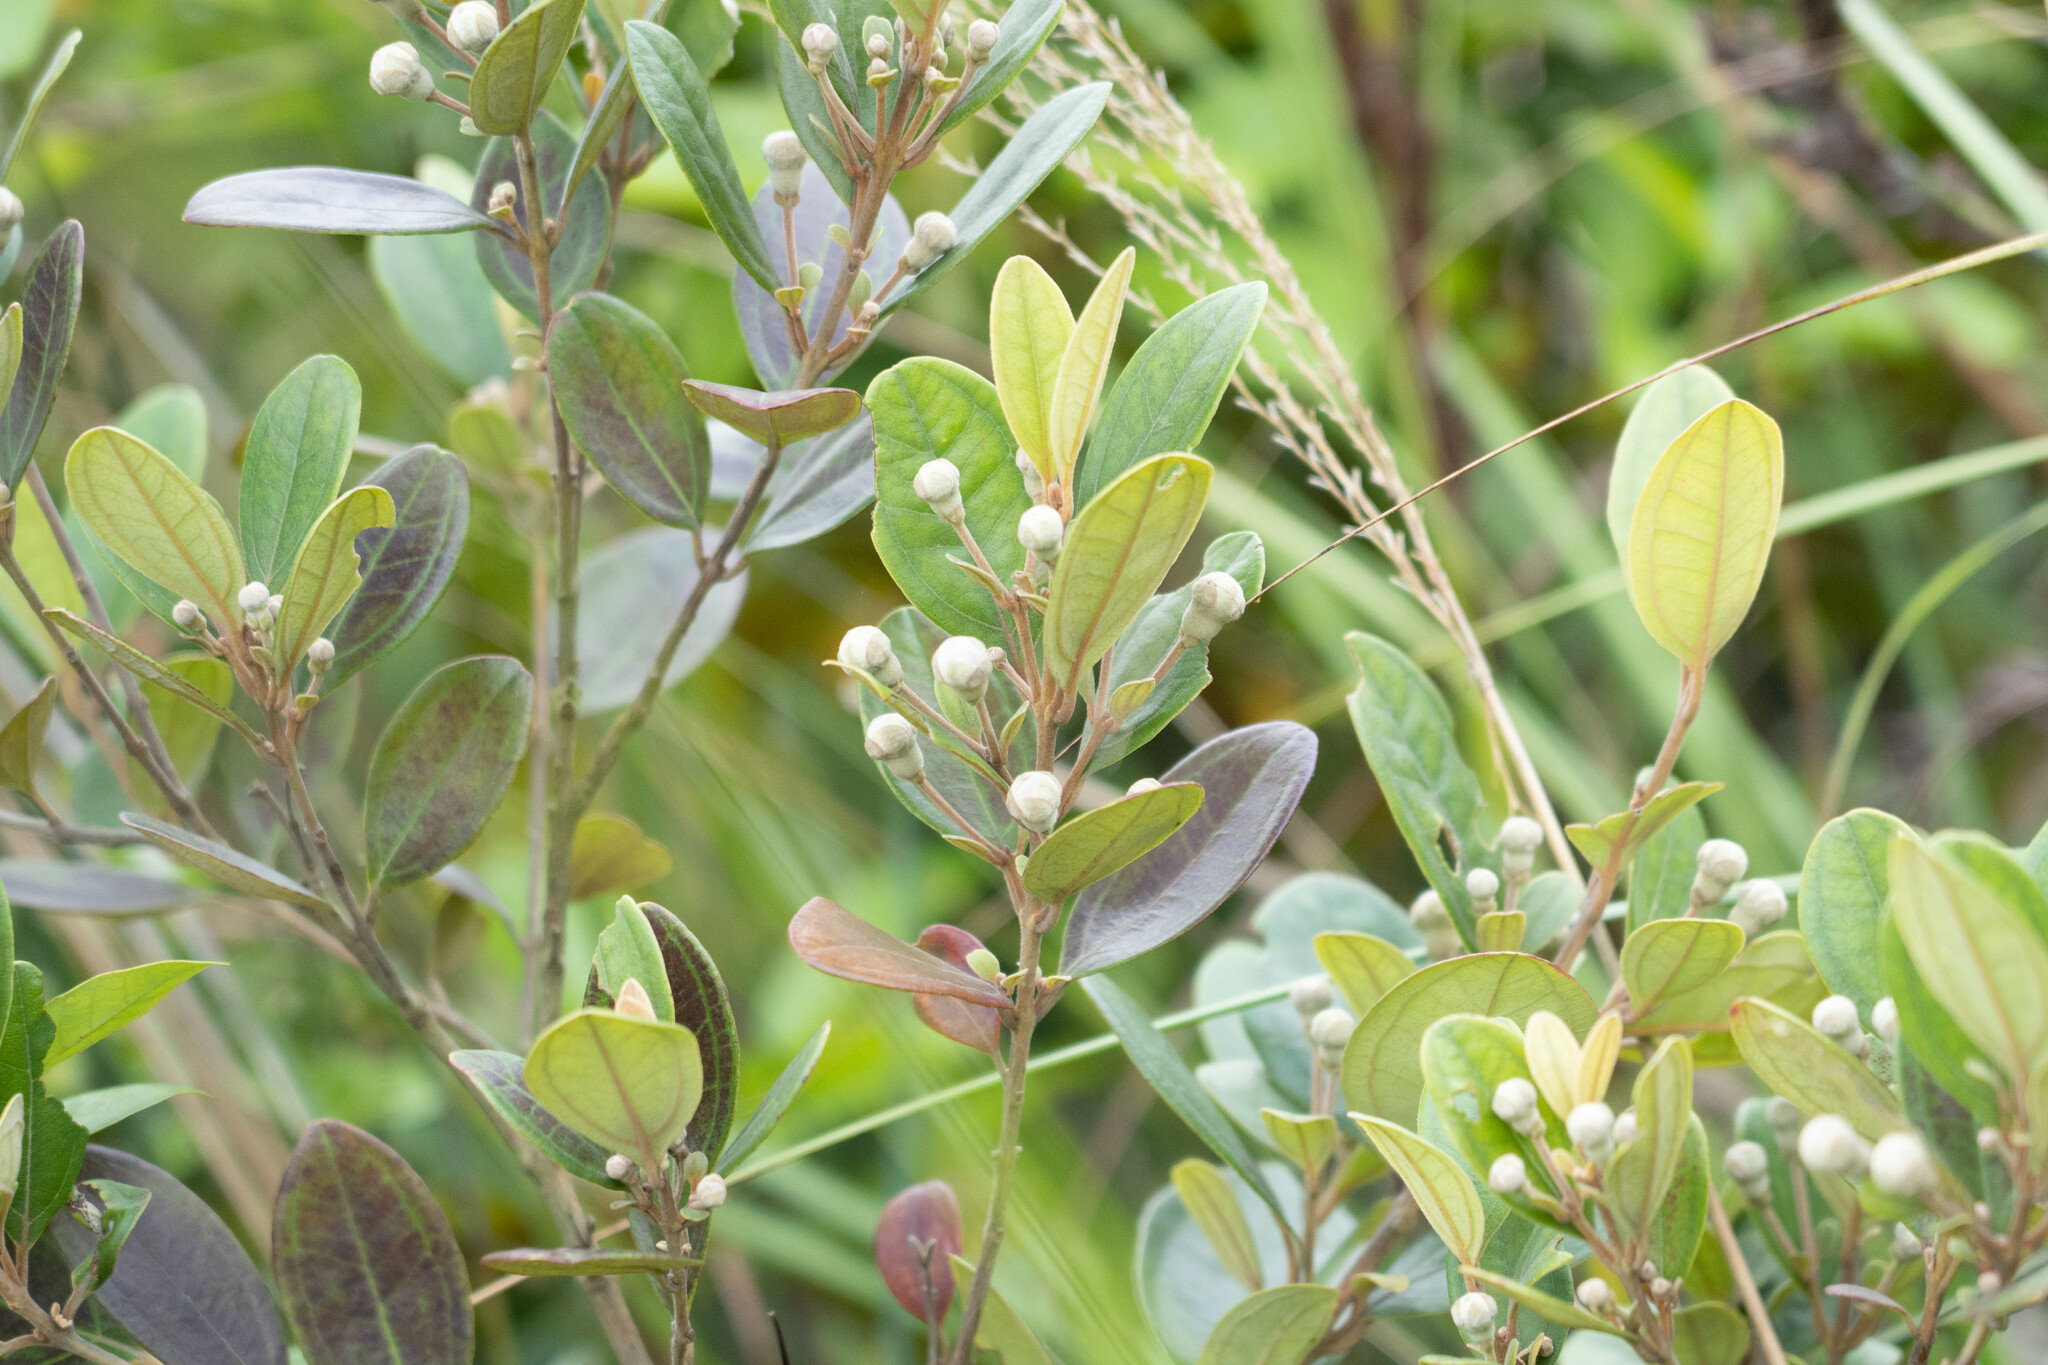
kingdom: Plantae
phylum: Tracheophyta
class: Magnoliopsida
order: Myrtales
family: Myrtaceae
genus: Rhodomyrtus
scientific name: Rhodomyrtus tomentosa
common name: Rose myrtle
